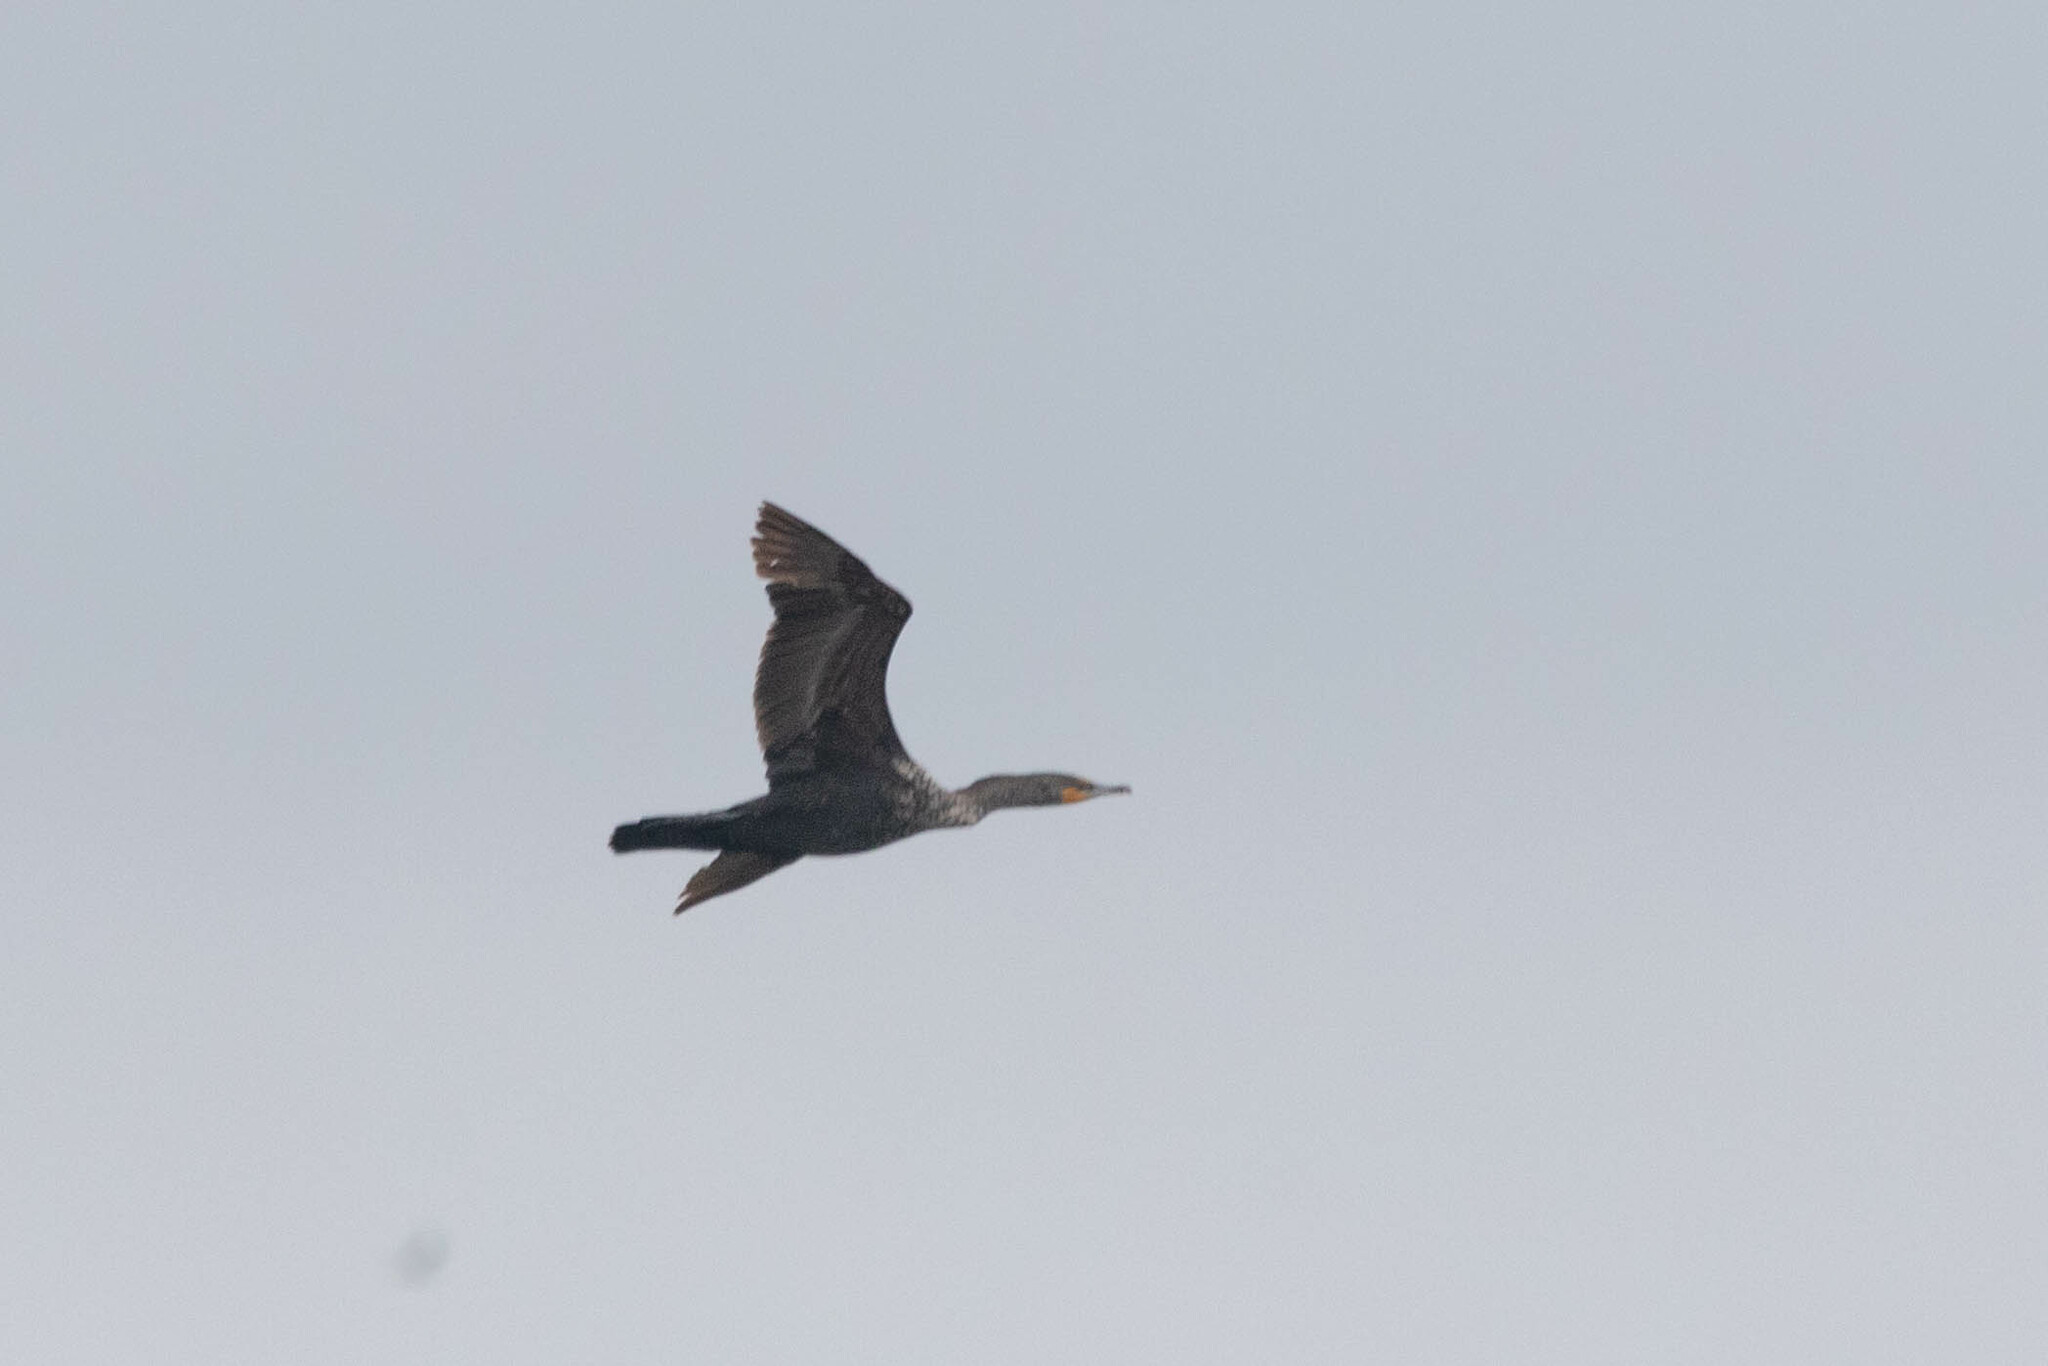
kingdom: Animalia
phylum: Chordata
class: Aves
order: Suliformes
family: Phalacrocoracidae
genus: Phalacrocorax
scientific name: Phalacrocorax auritus
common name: Double-crested cormorant
